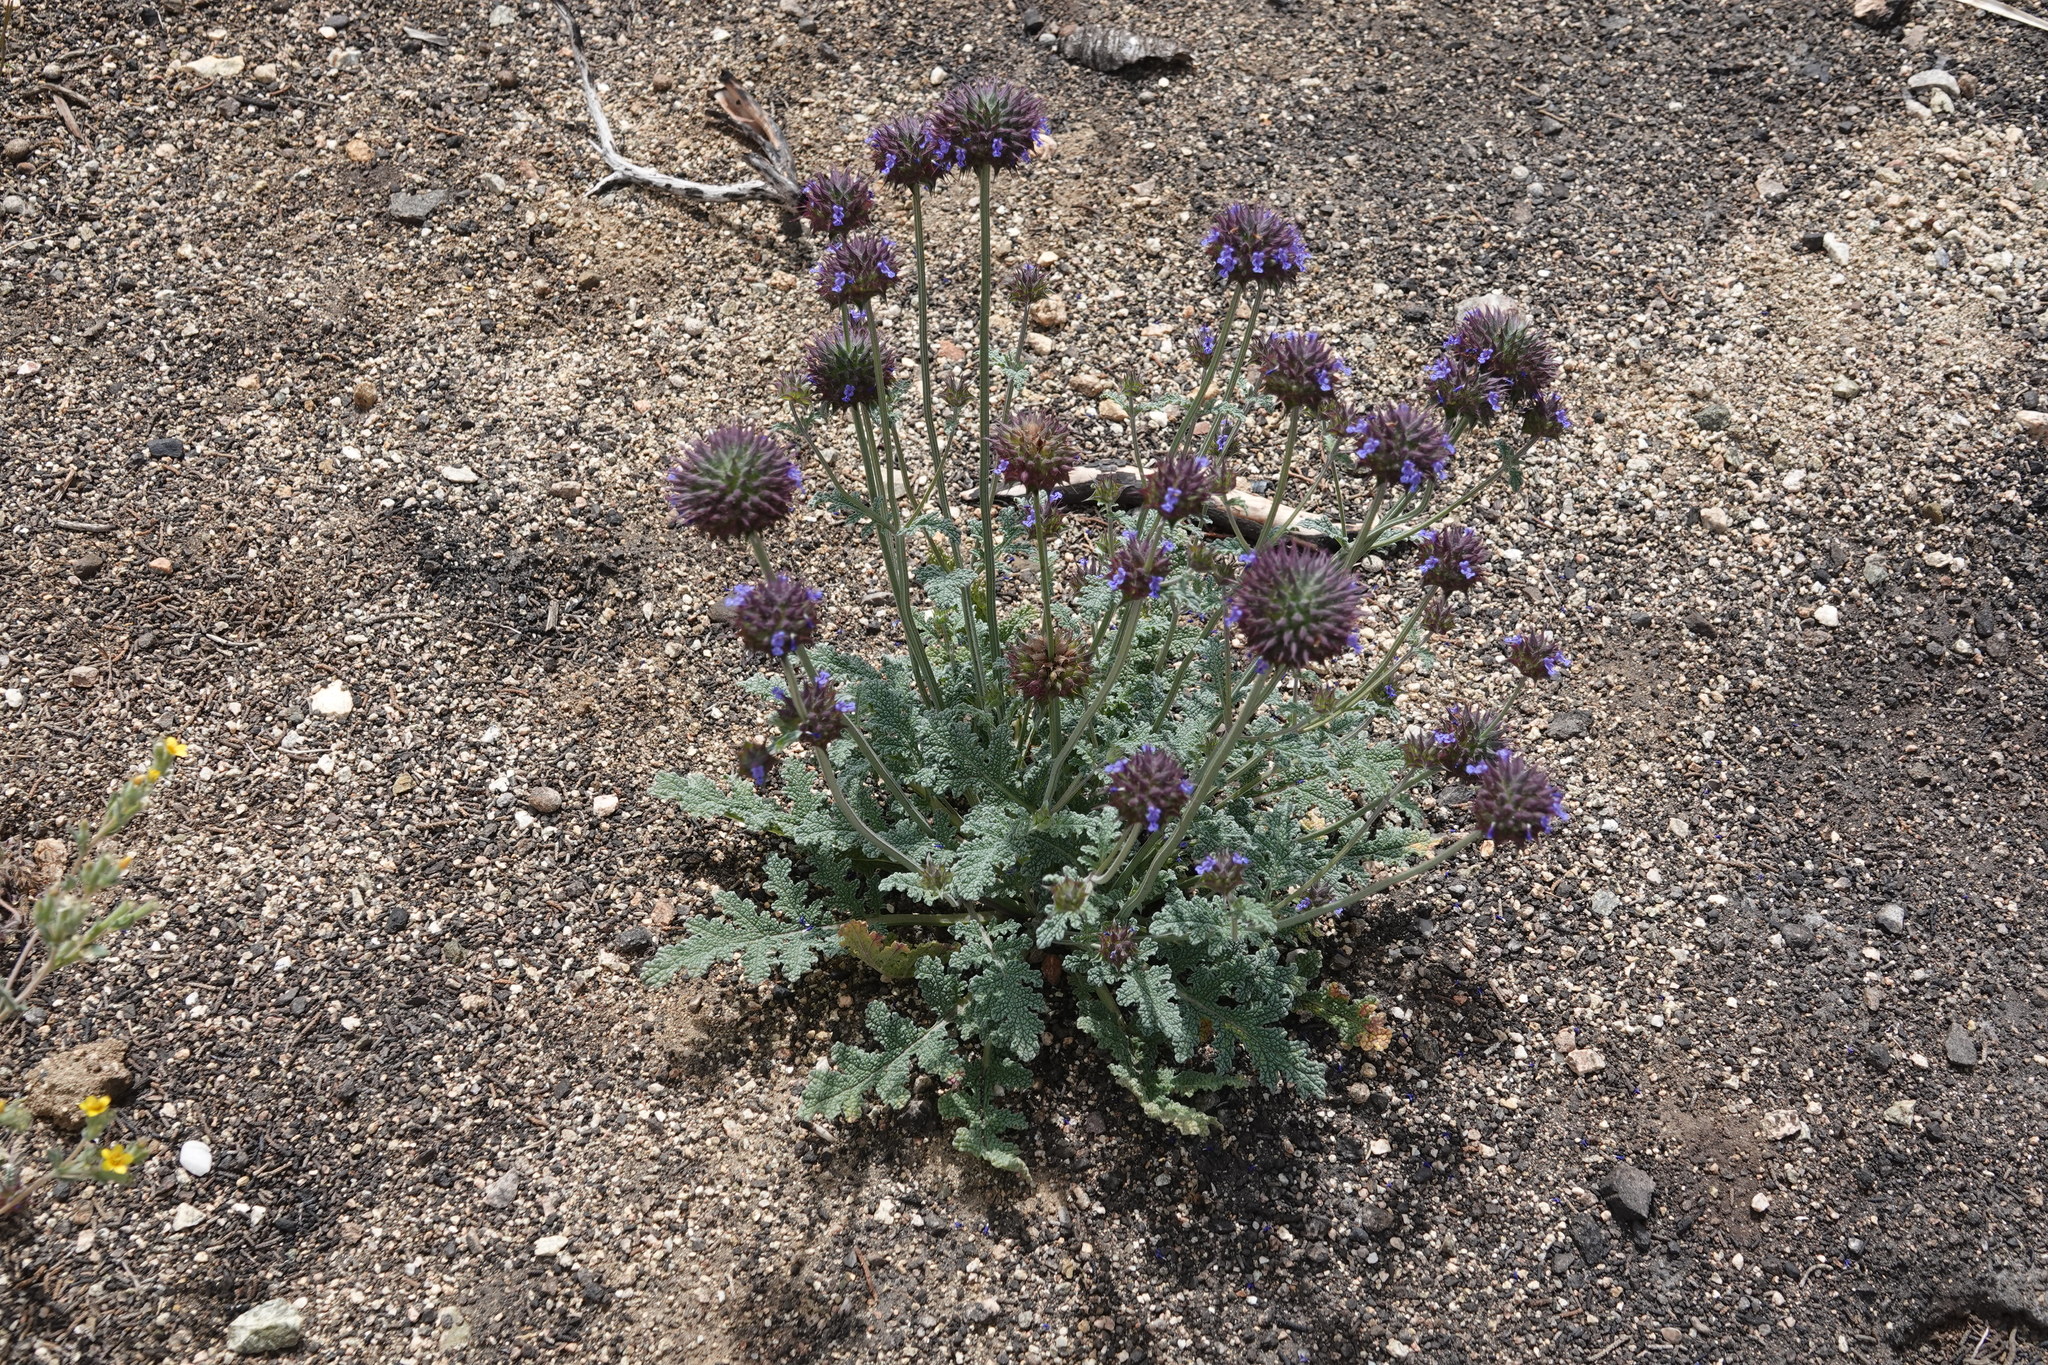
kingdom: Plantae
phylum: Tracheophyta
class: Magnoliopsida
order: Lamiales
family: Lamiaceae
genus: Salvia
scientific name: Salvia columbariae
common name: Chia
